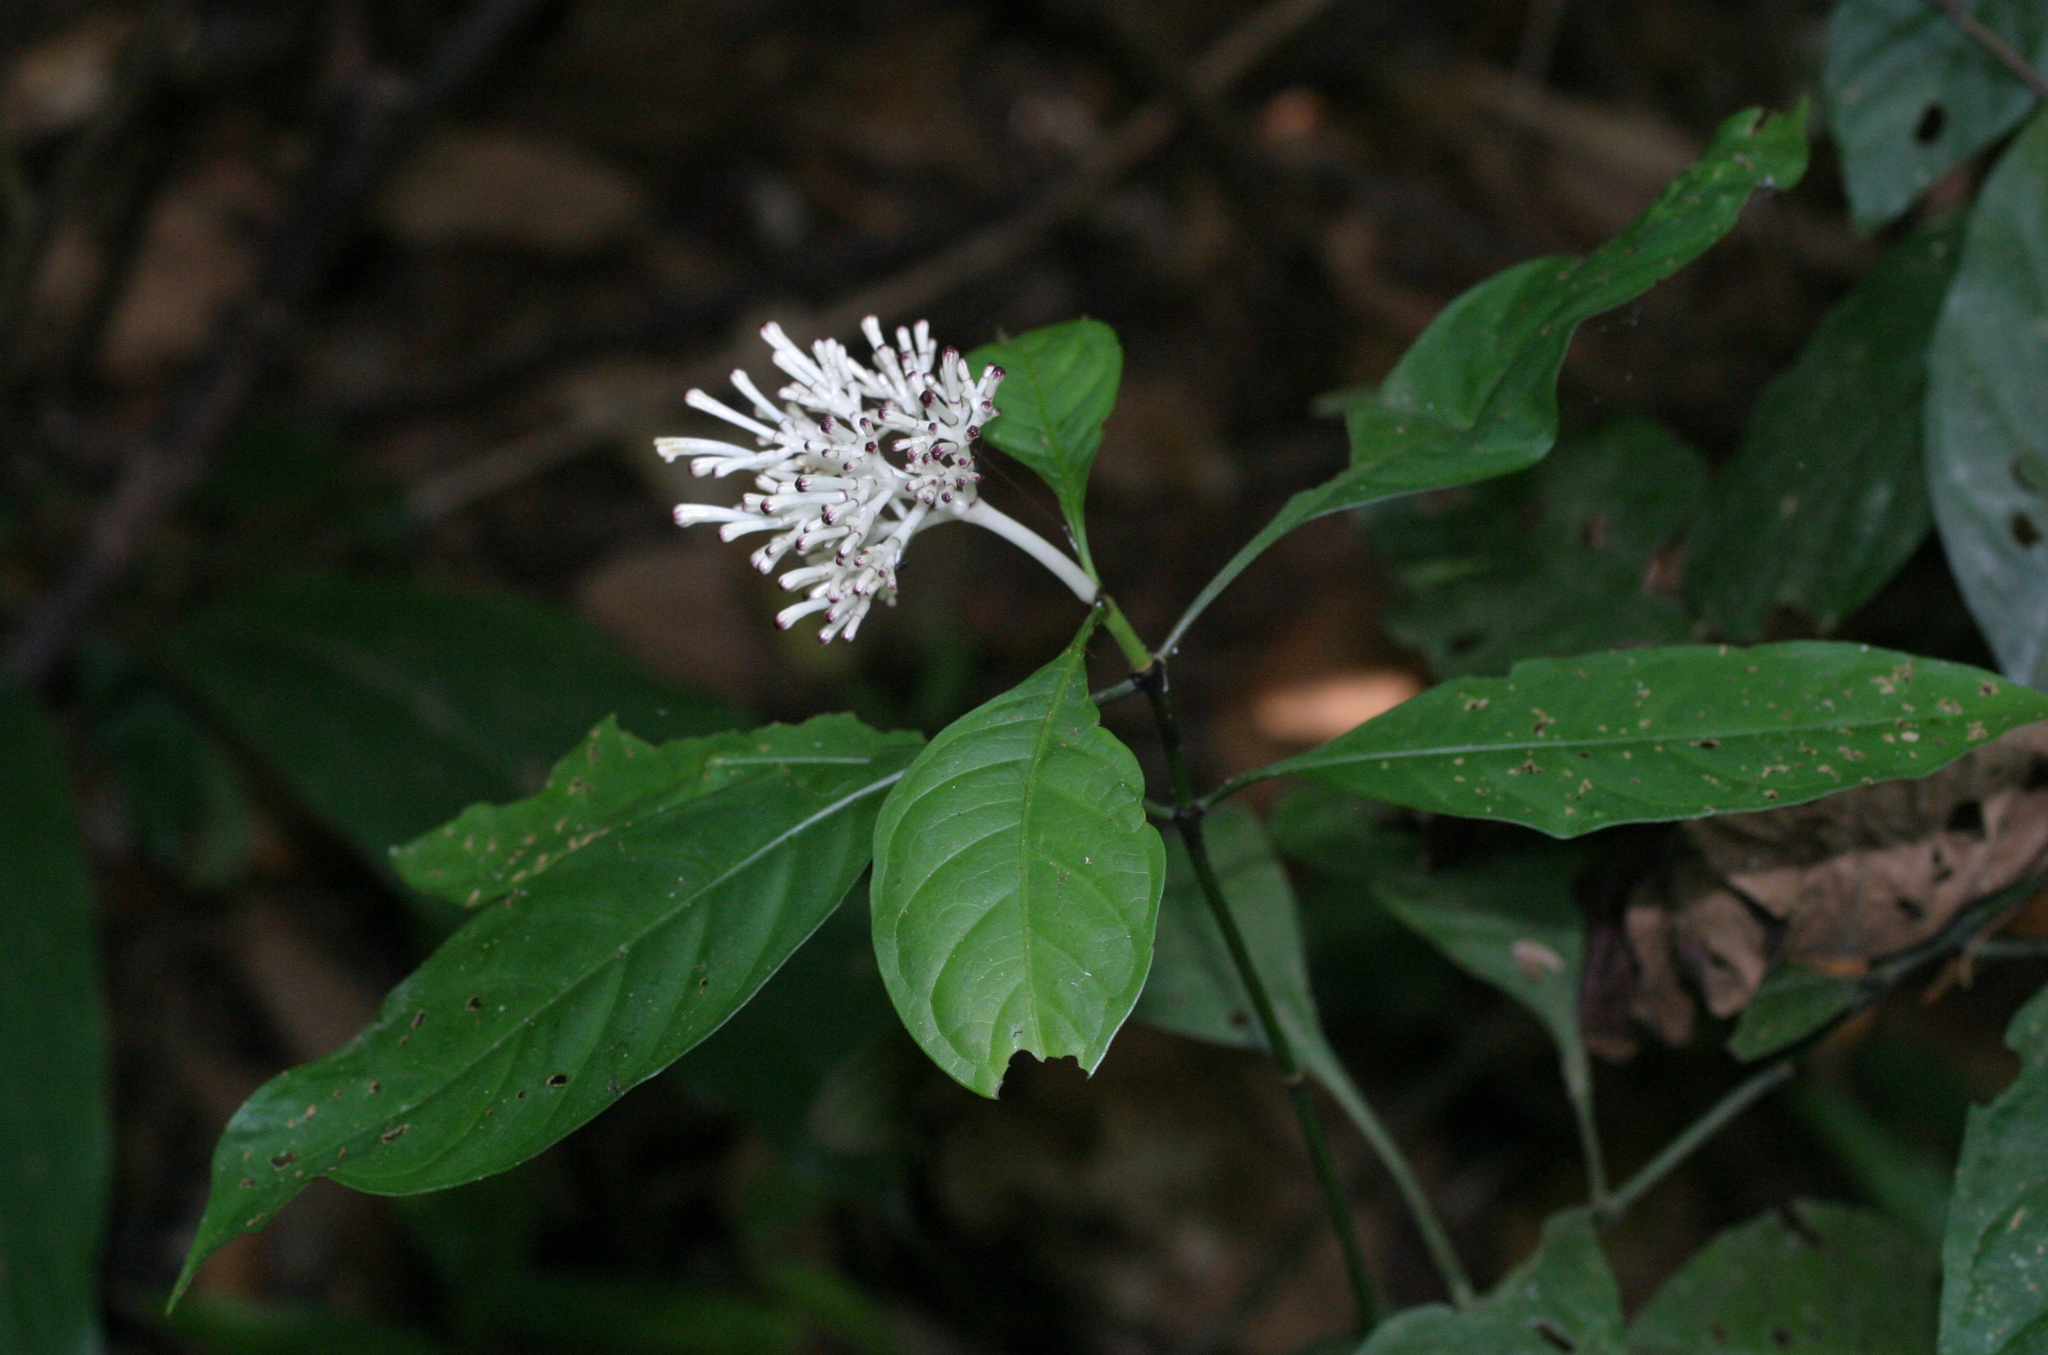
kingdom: Plantae
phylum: Tracheophyta
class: Magnoliopsida
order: Gentianales
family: Rubiaceae
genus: Chassalia
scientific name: Chassalia curviflora
